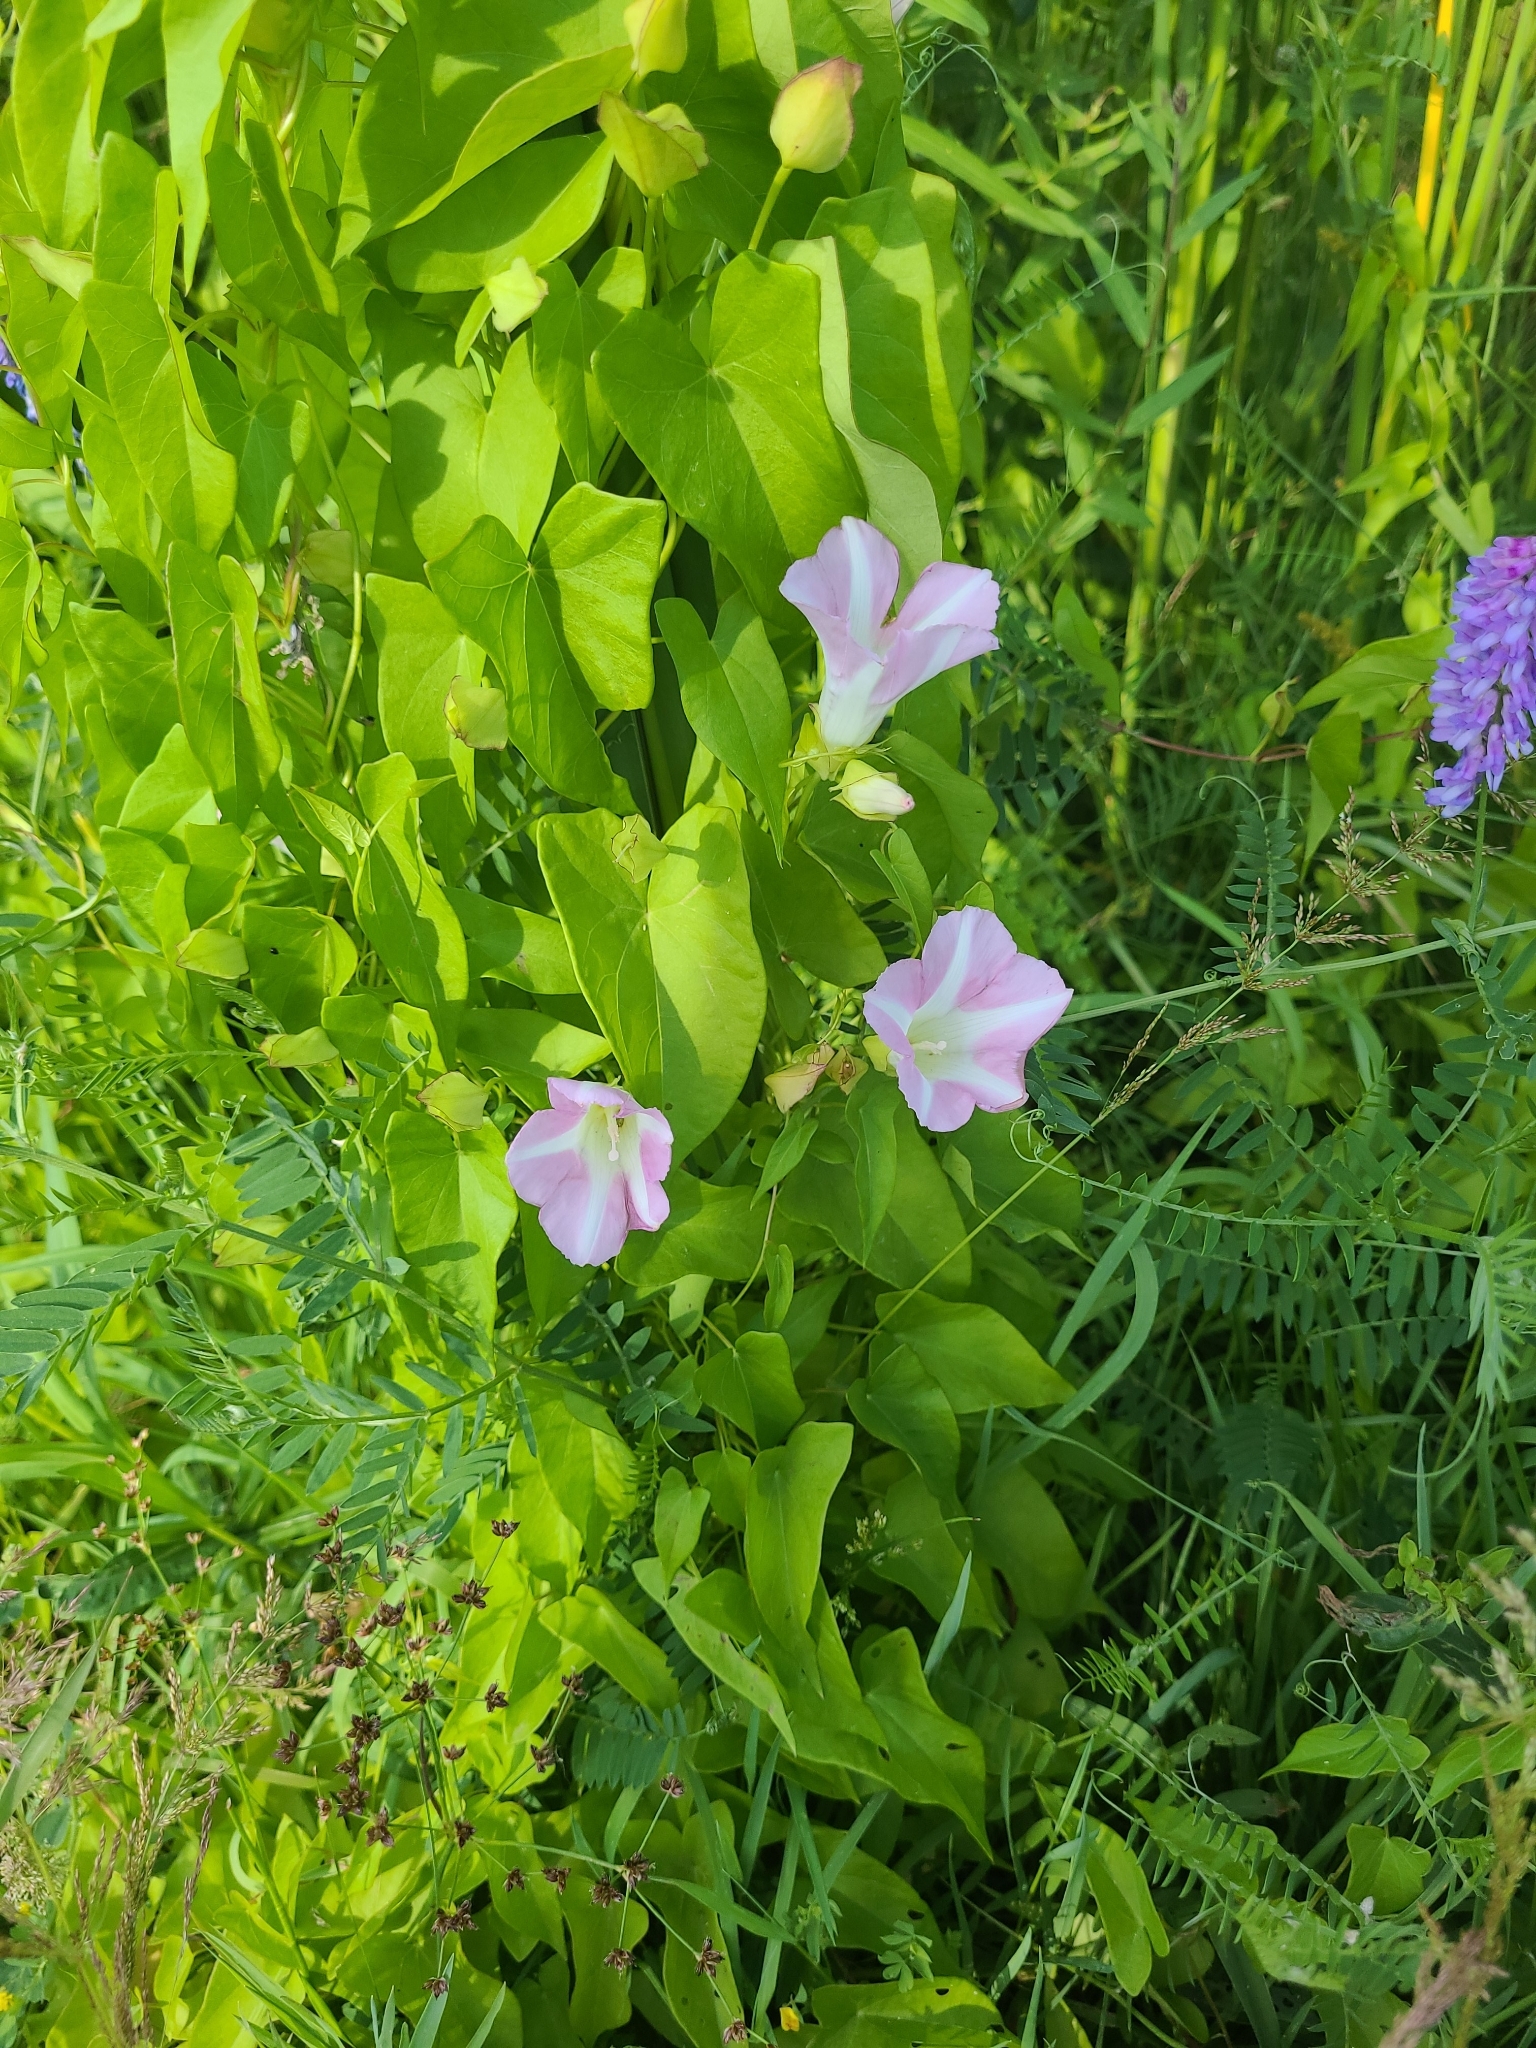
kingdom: Plantae
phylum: Tracheophyta
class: Magnoliopsida
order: Solanales
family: Convolvulaceae
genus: Calystegia
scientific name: Calystegia sepium
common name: Hedge bindweed
